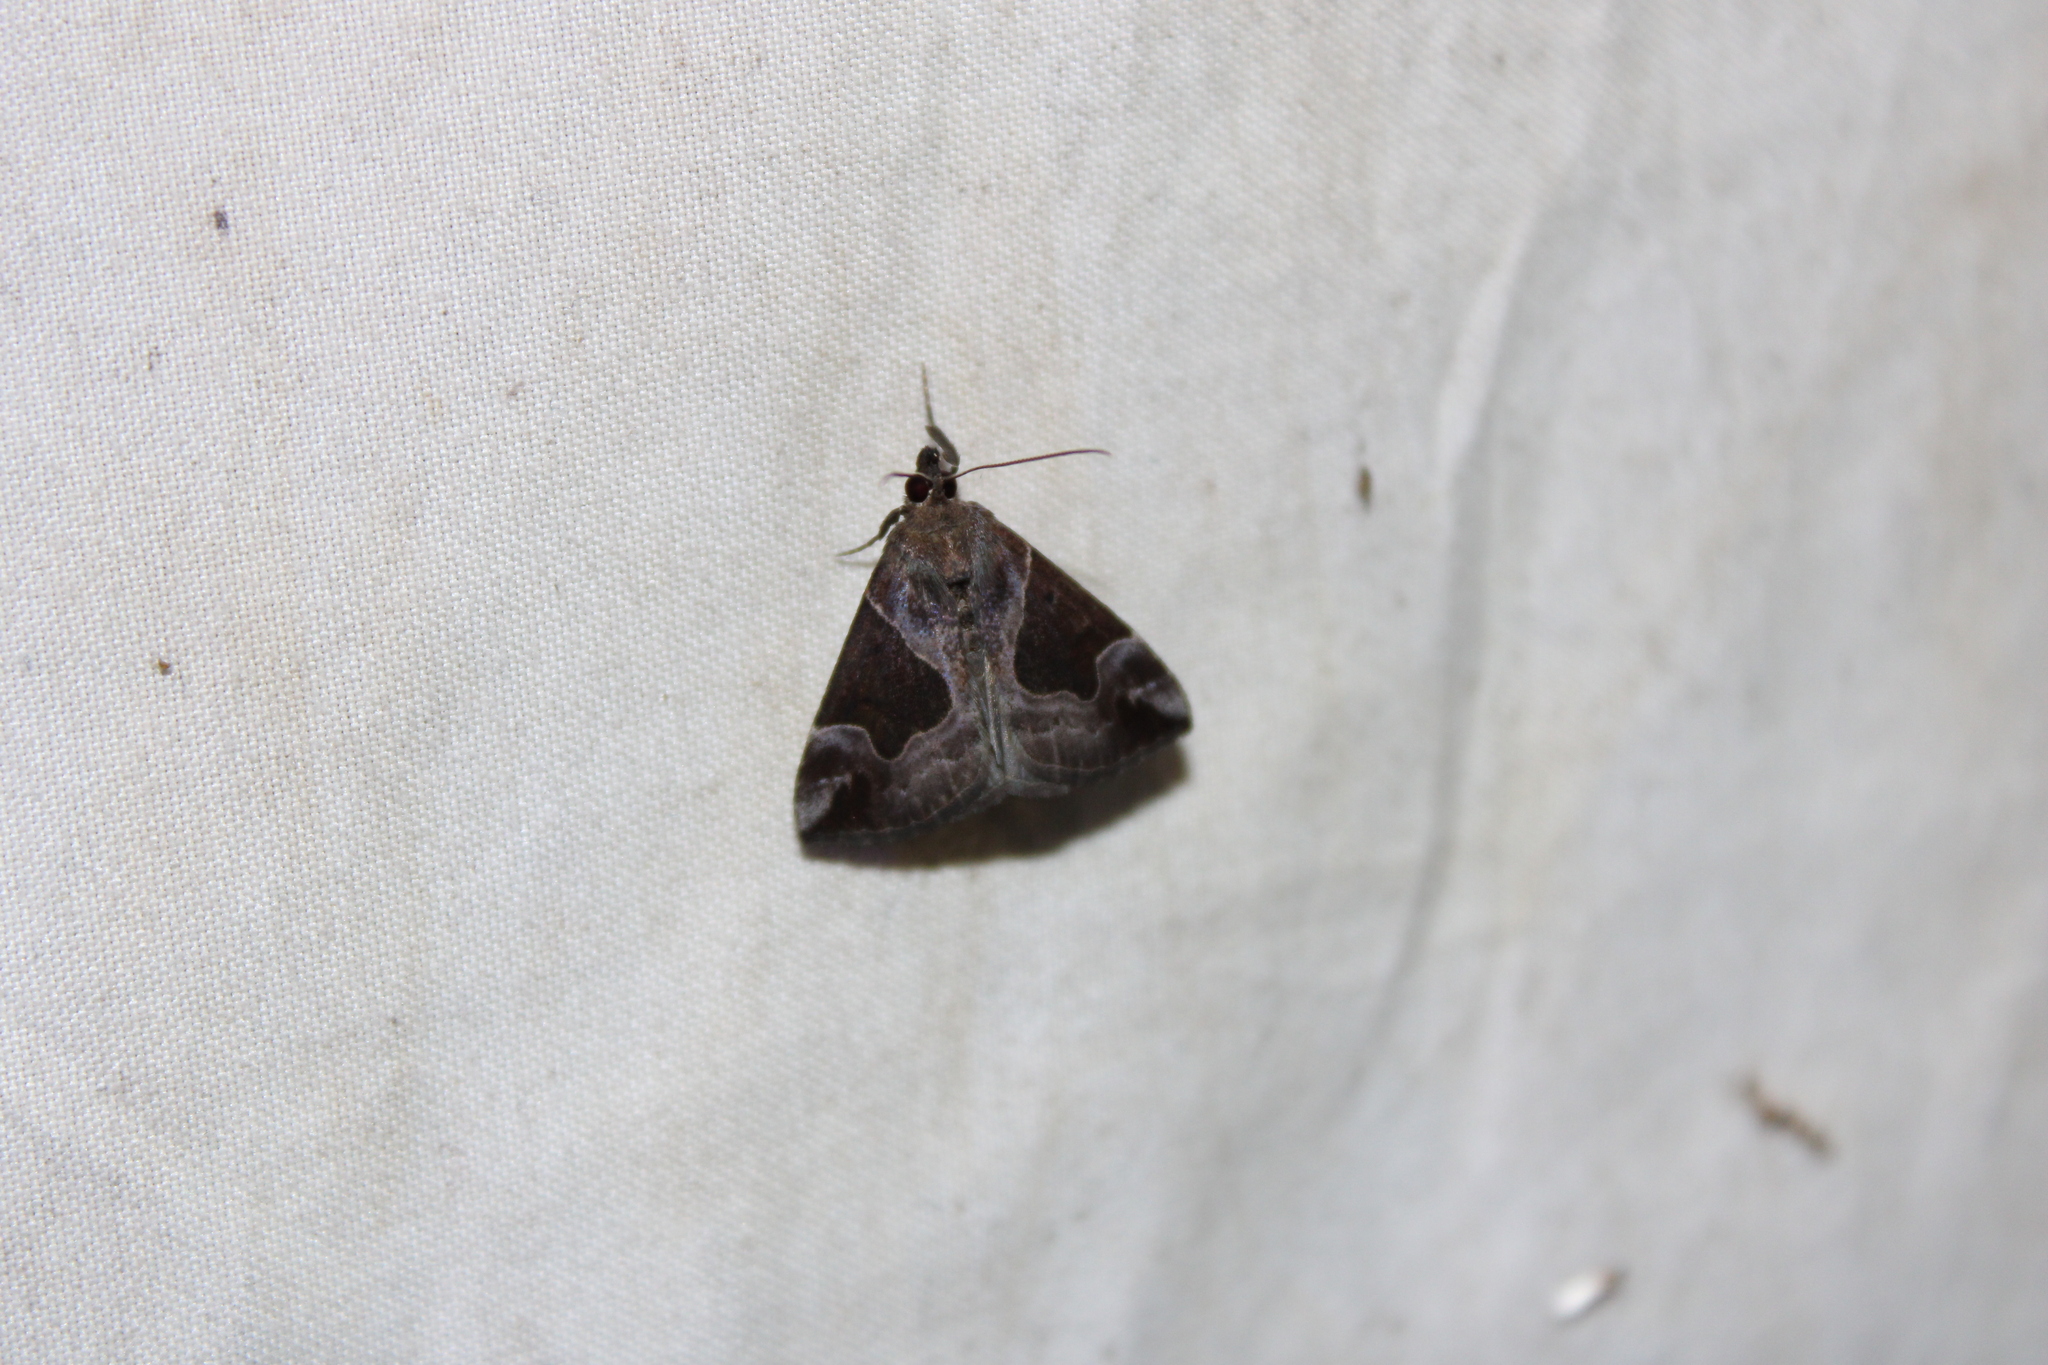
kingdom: Animalia
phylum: Arthropoda
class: Insecta
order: Lepidoptera
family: Erebidae
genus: Hypena
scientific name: Hypena manalis
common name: Flowing-line bomolocha moth
